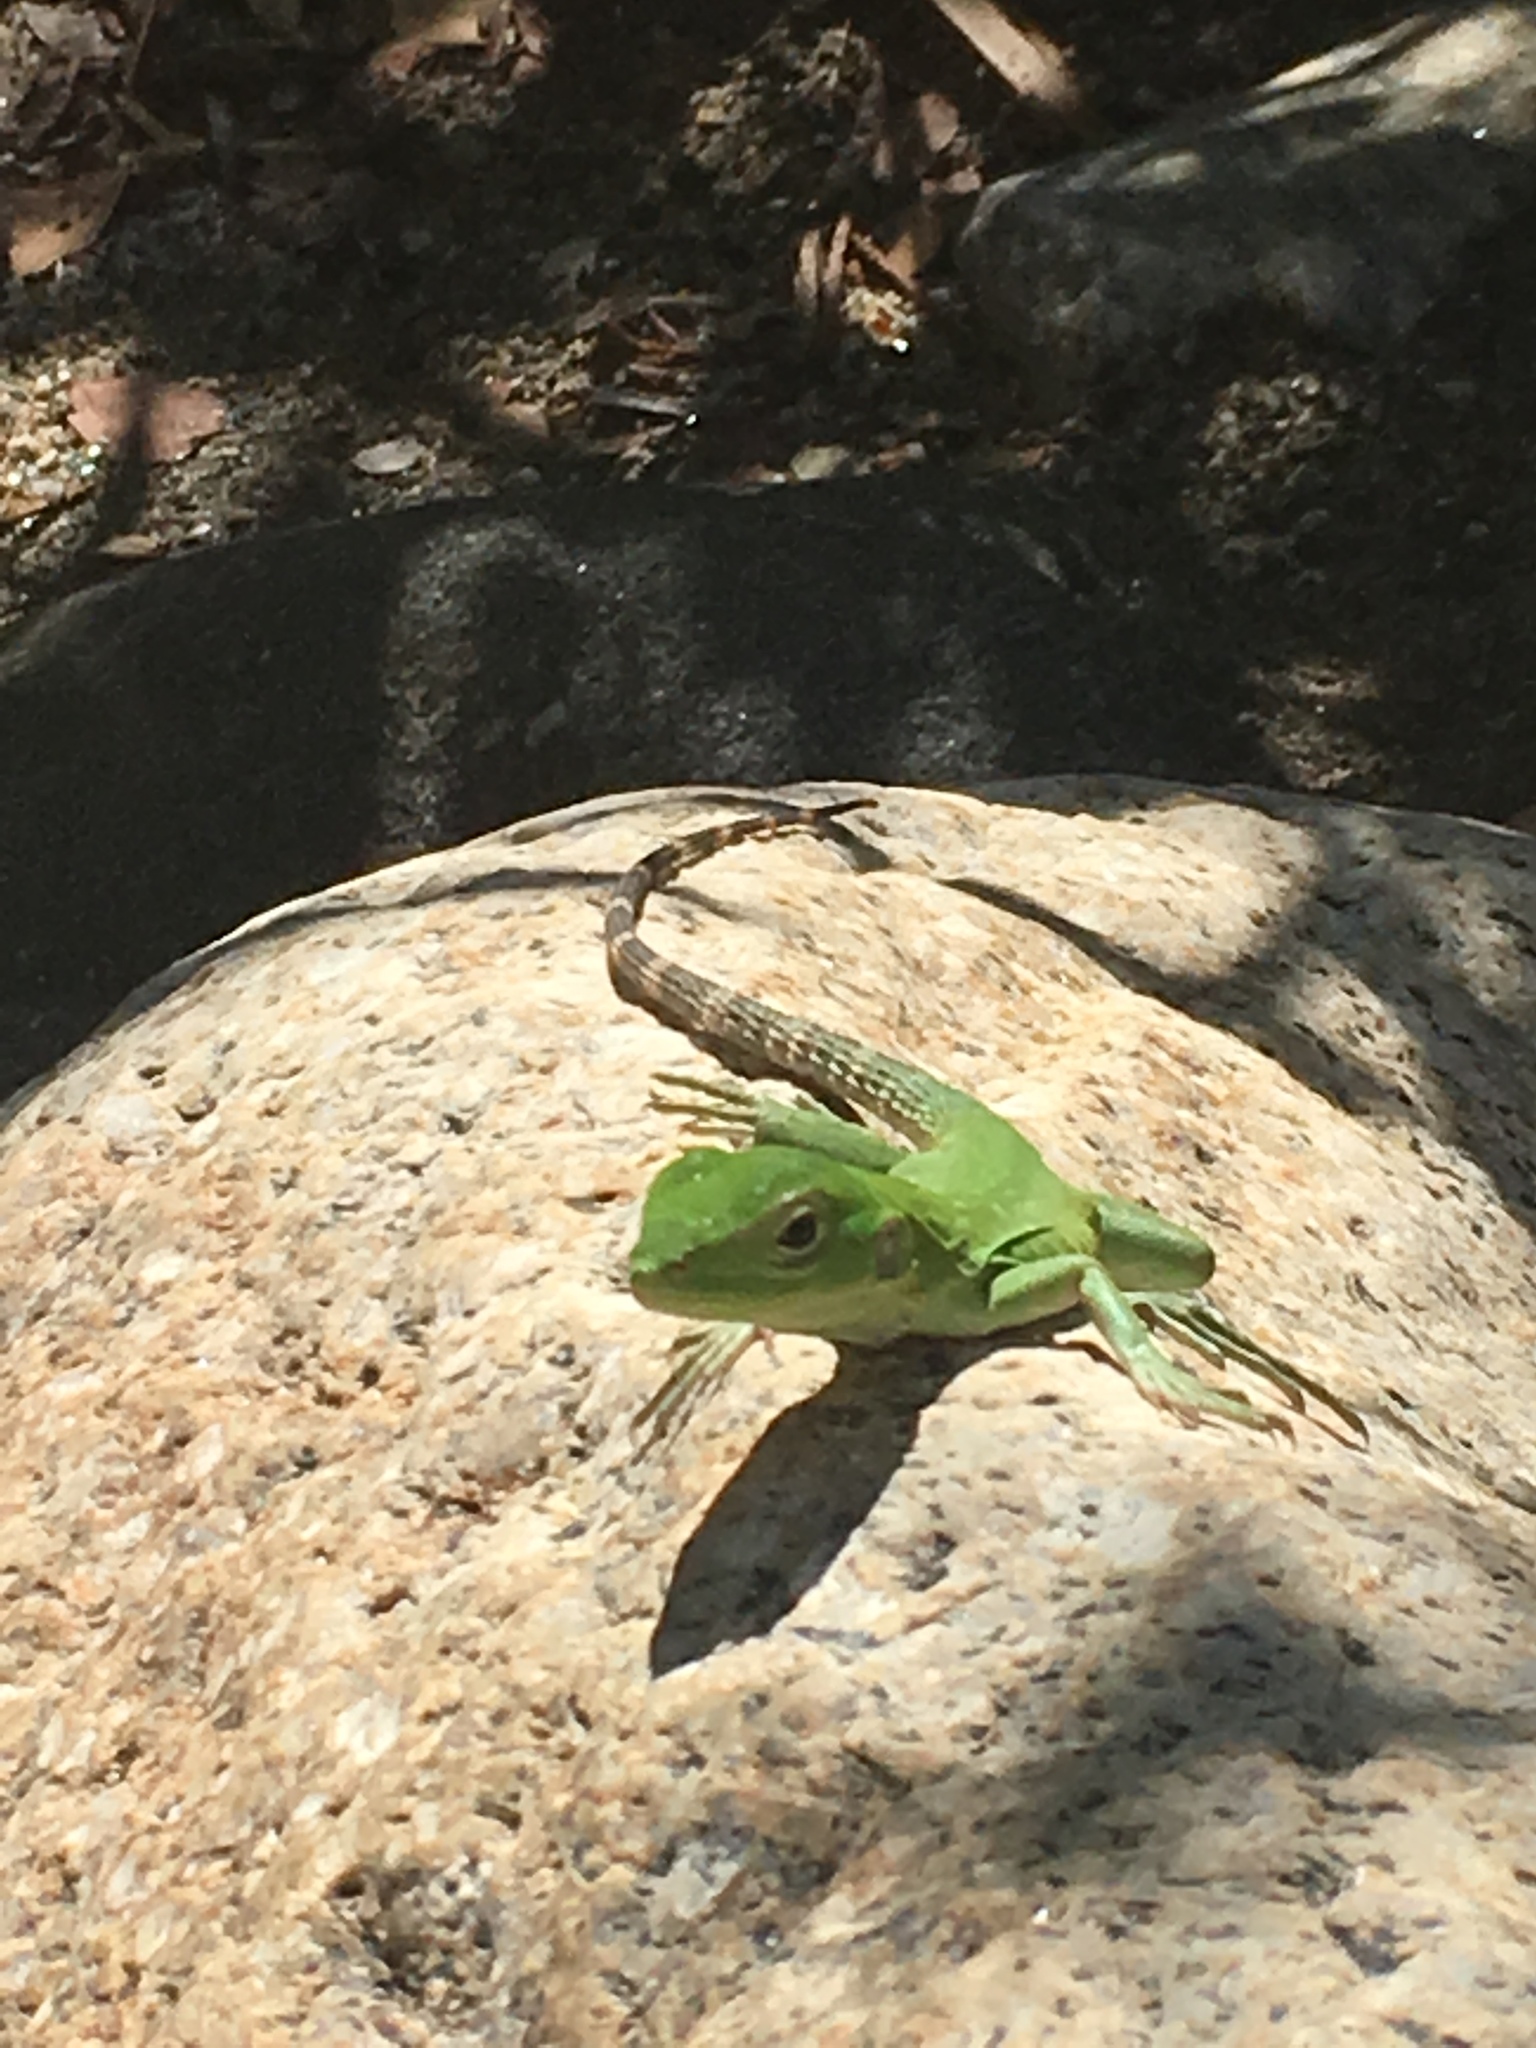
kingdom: Animalia
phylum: Chordata
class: Squamata
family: Iguanidae
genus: Ctenosaura
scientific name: Ctenosaura hemilopha
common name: Baja california spiny- tailed iguana
